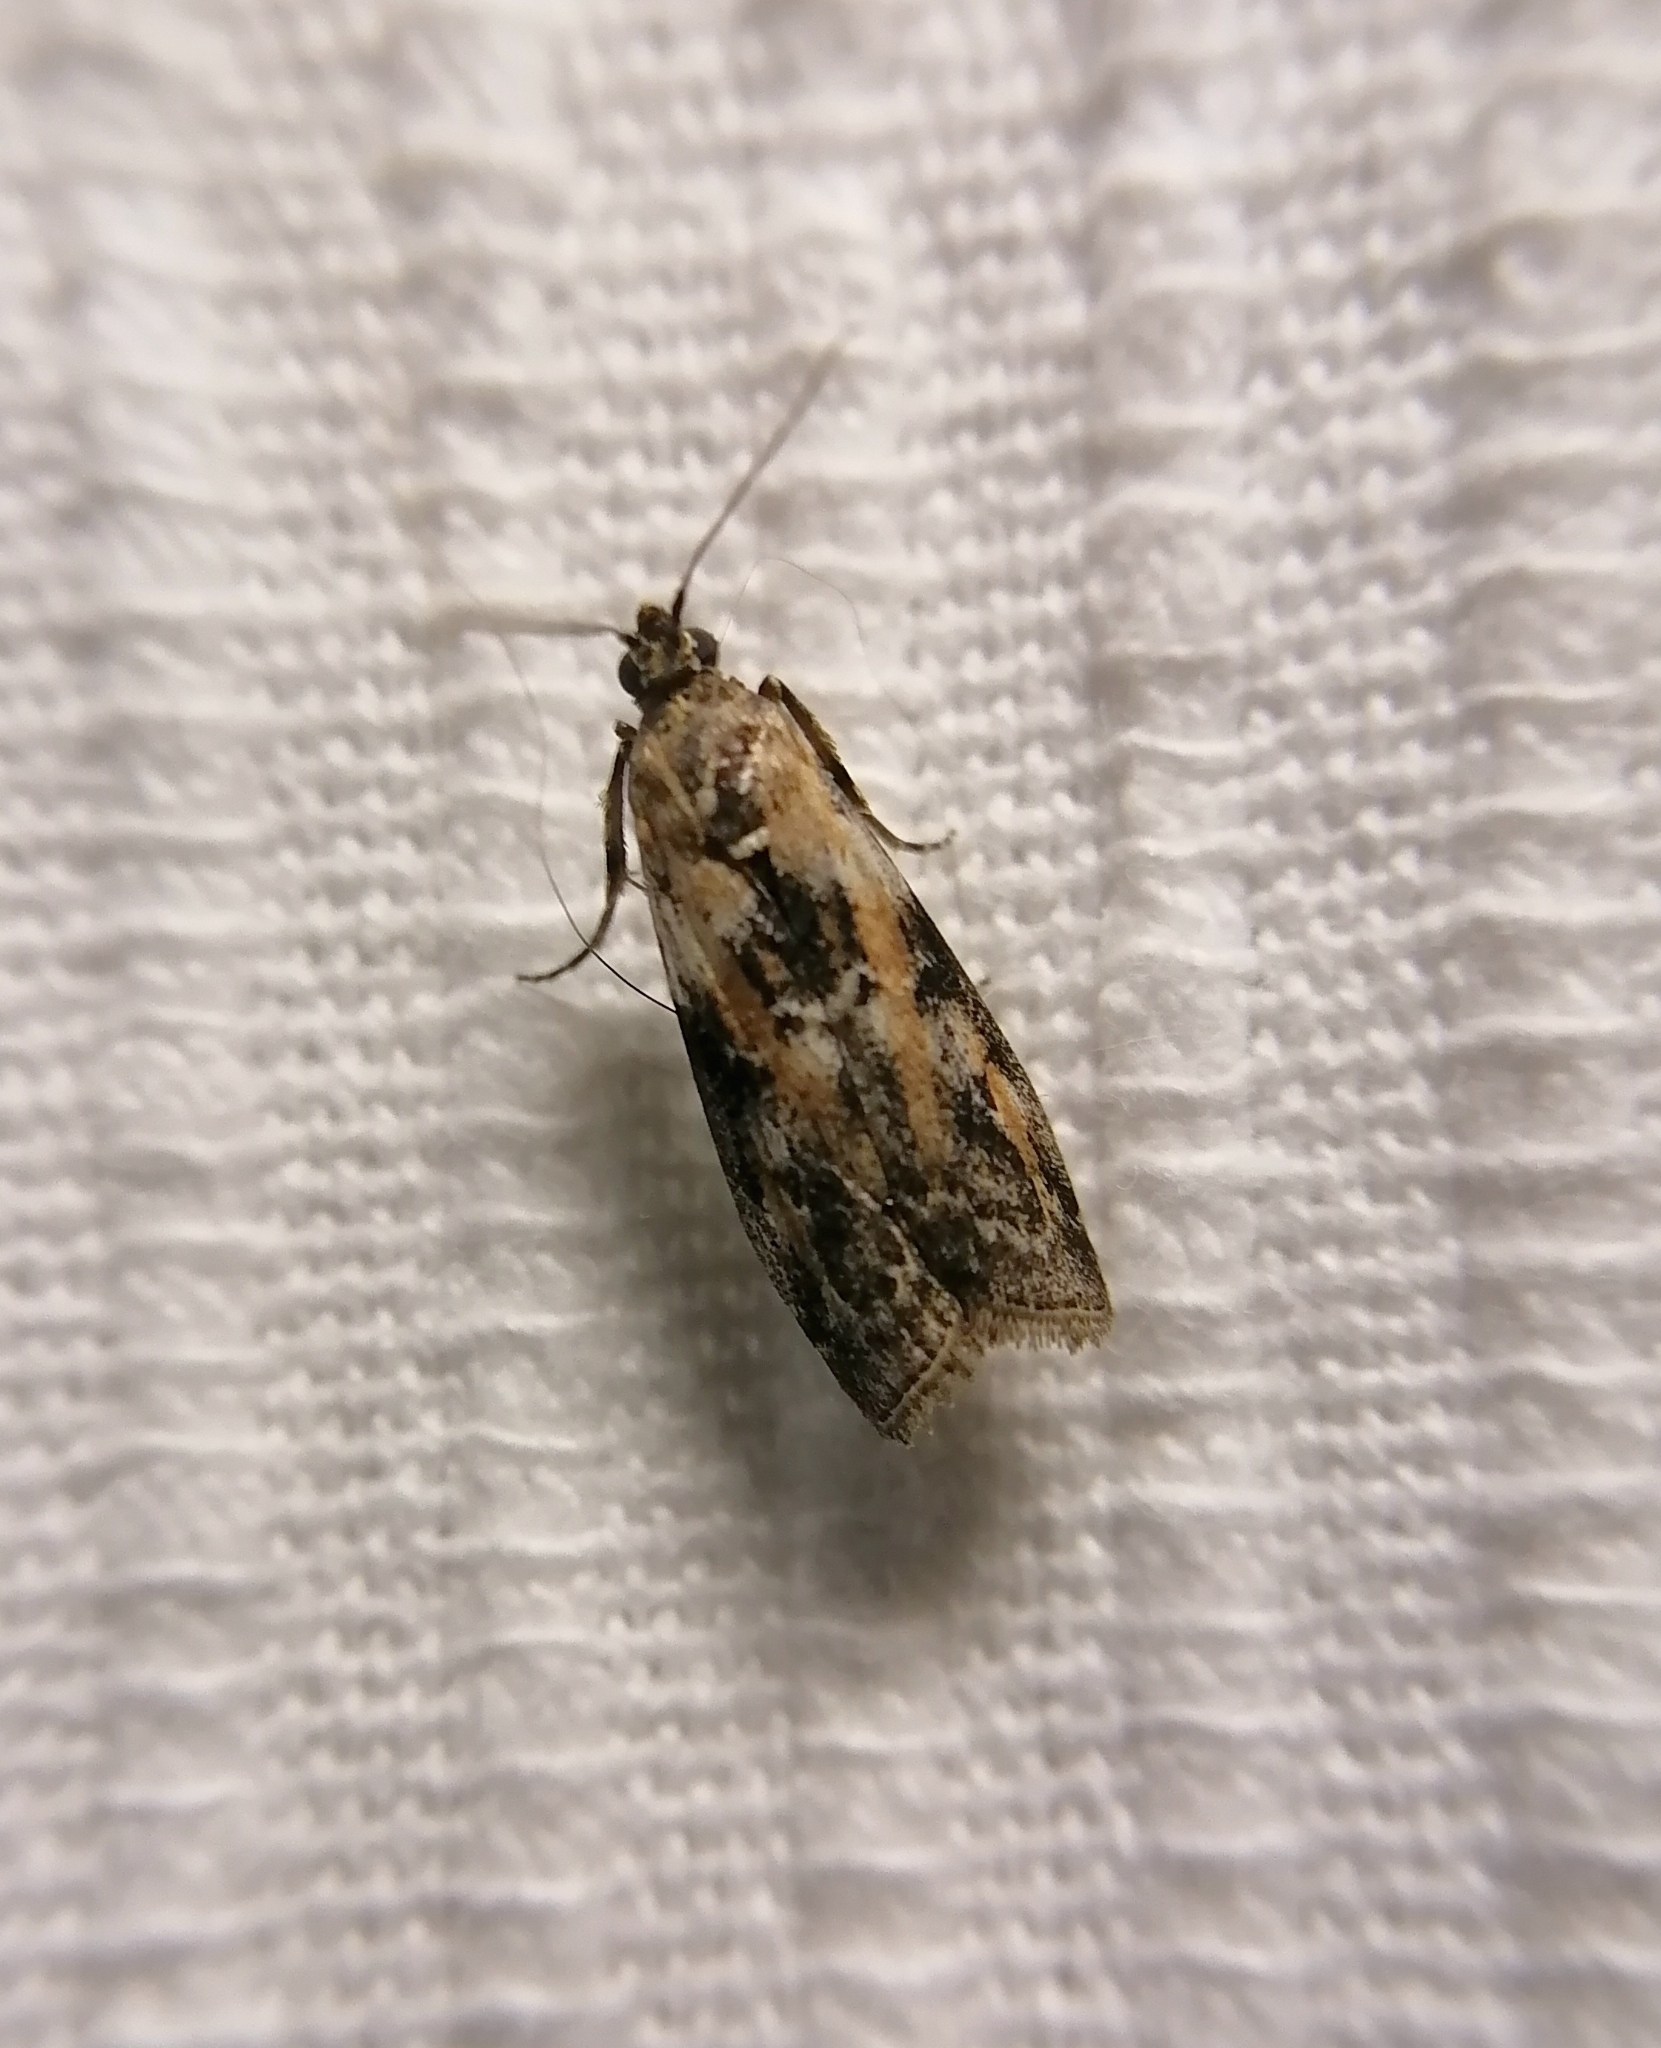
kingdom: Animalia
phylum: Arthropoda
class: Insecta
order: Lepidoptera
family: Pyralidae
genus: Sciota
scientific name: Sciota marmorata
